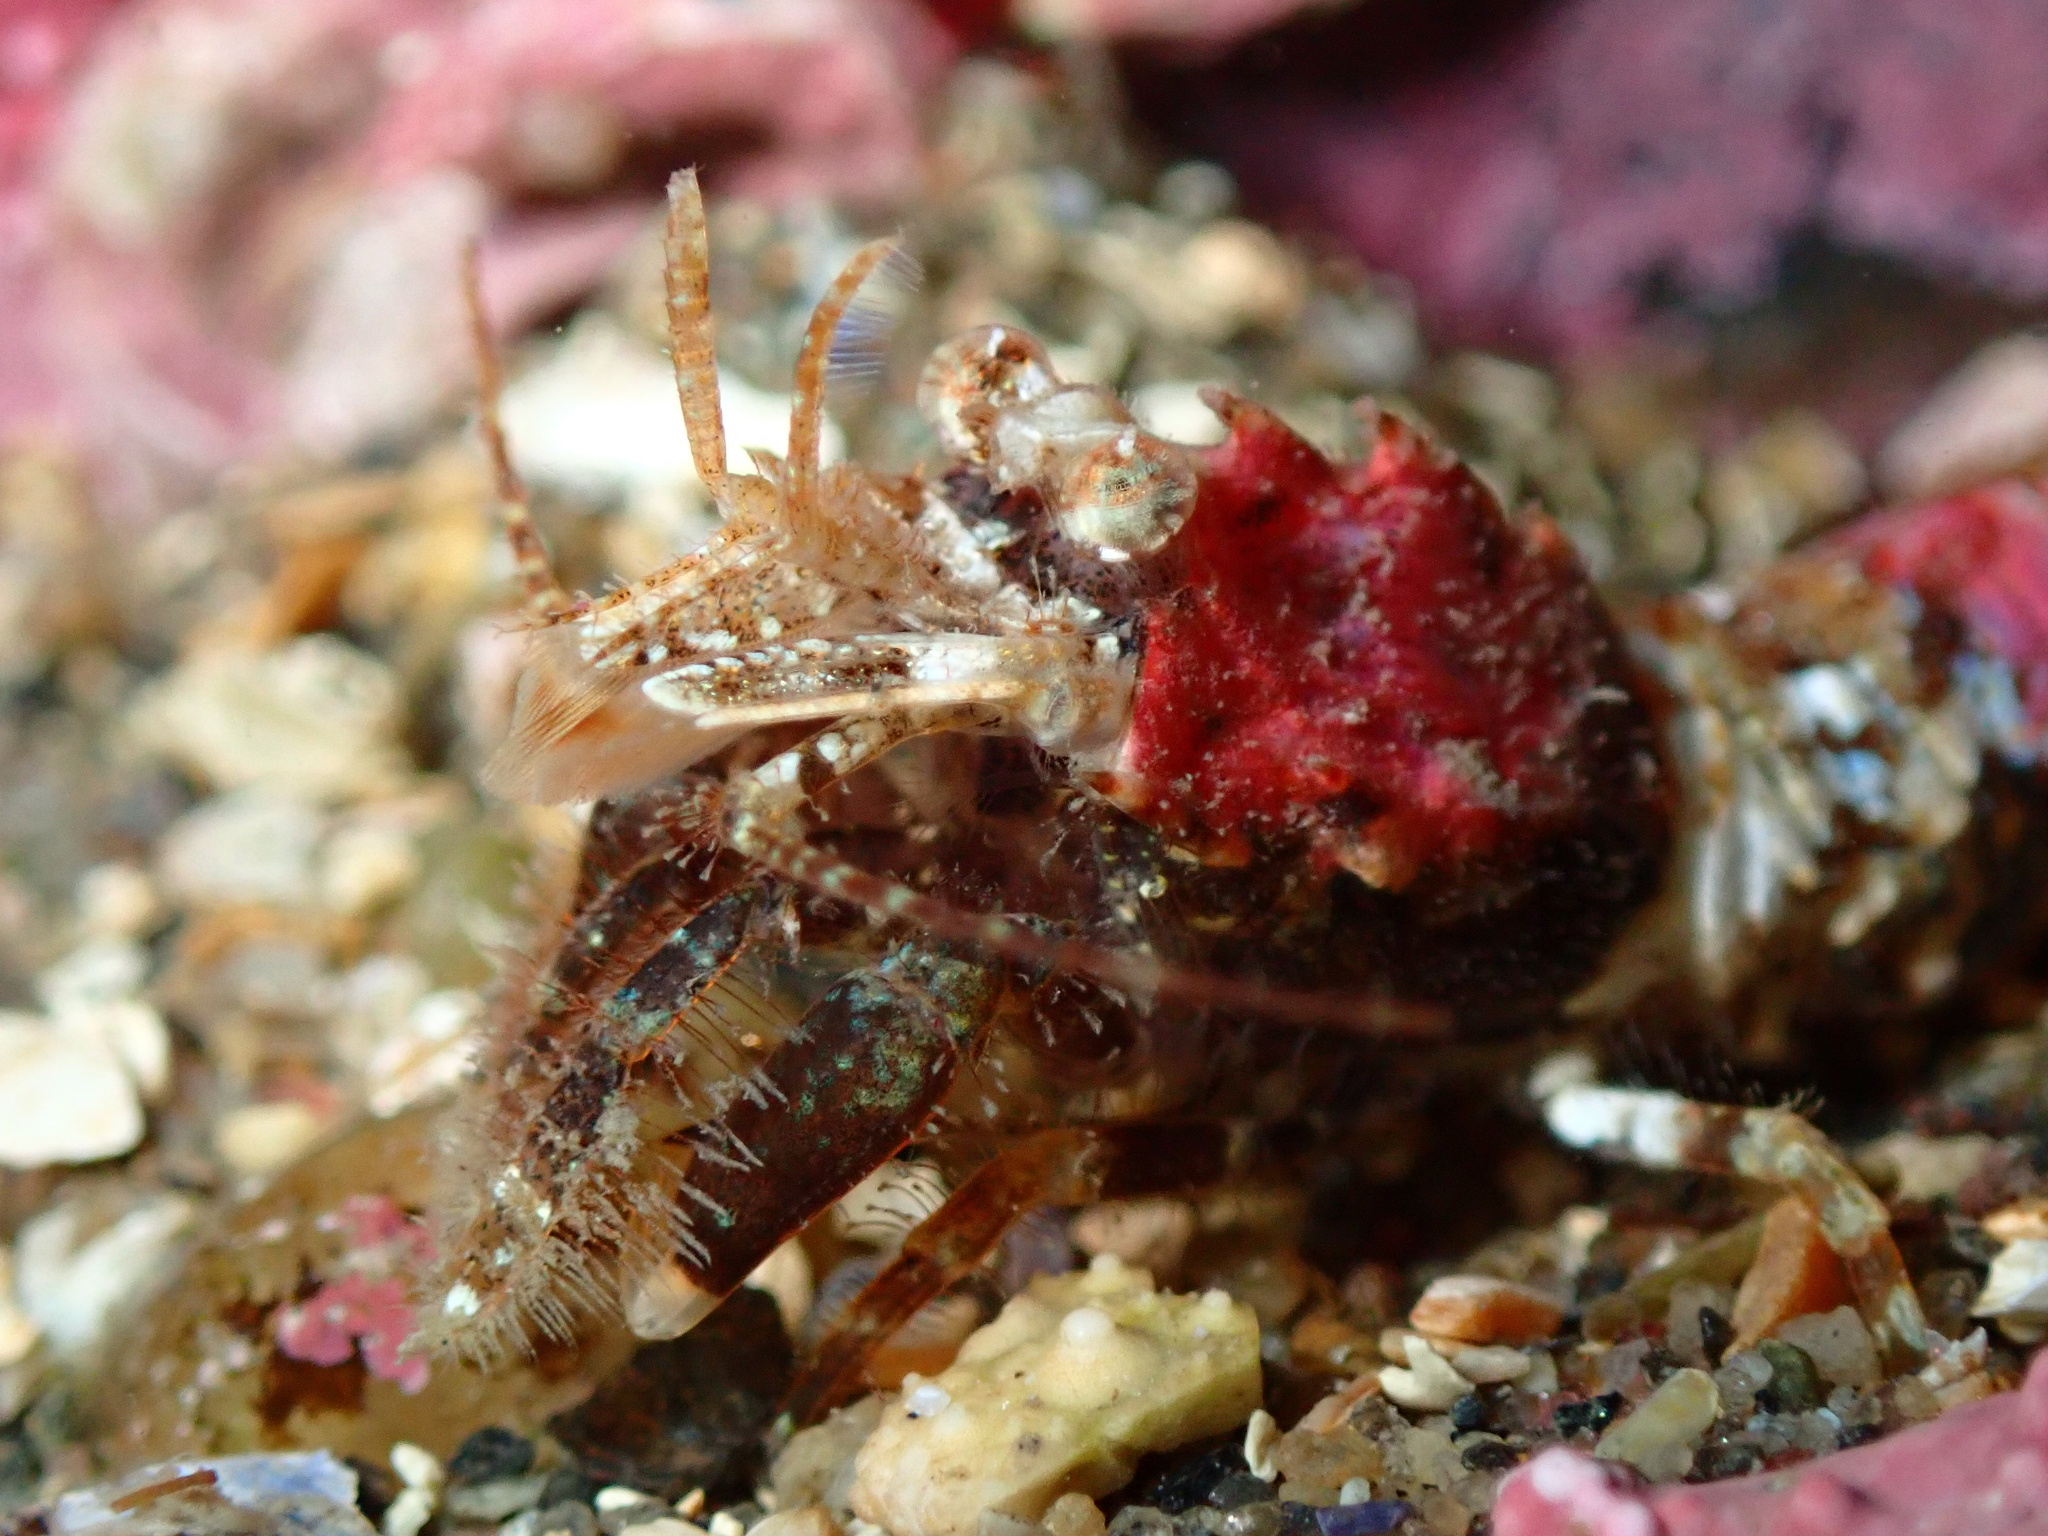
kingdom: Animalia
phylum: Arthropoda
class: Malacostraca
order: Decapoda
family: Crangonidae
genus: Sclerocrangon
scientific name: Sclerocrangon boreas
